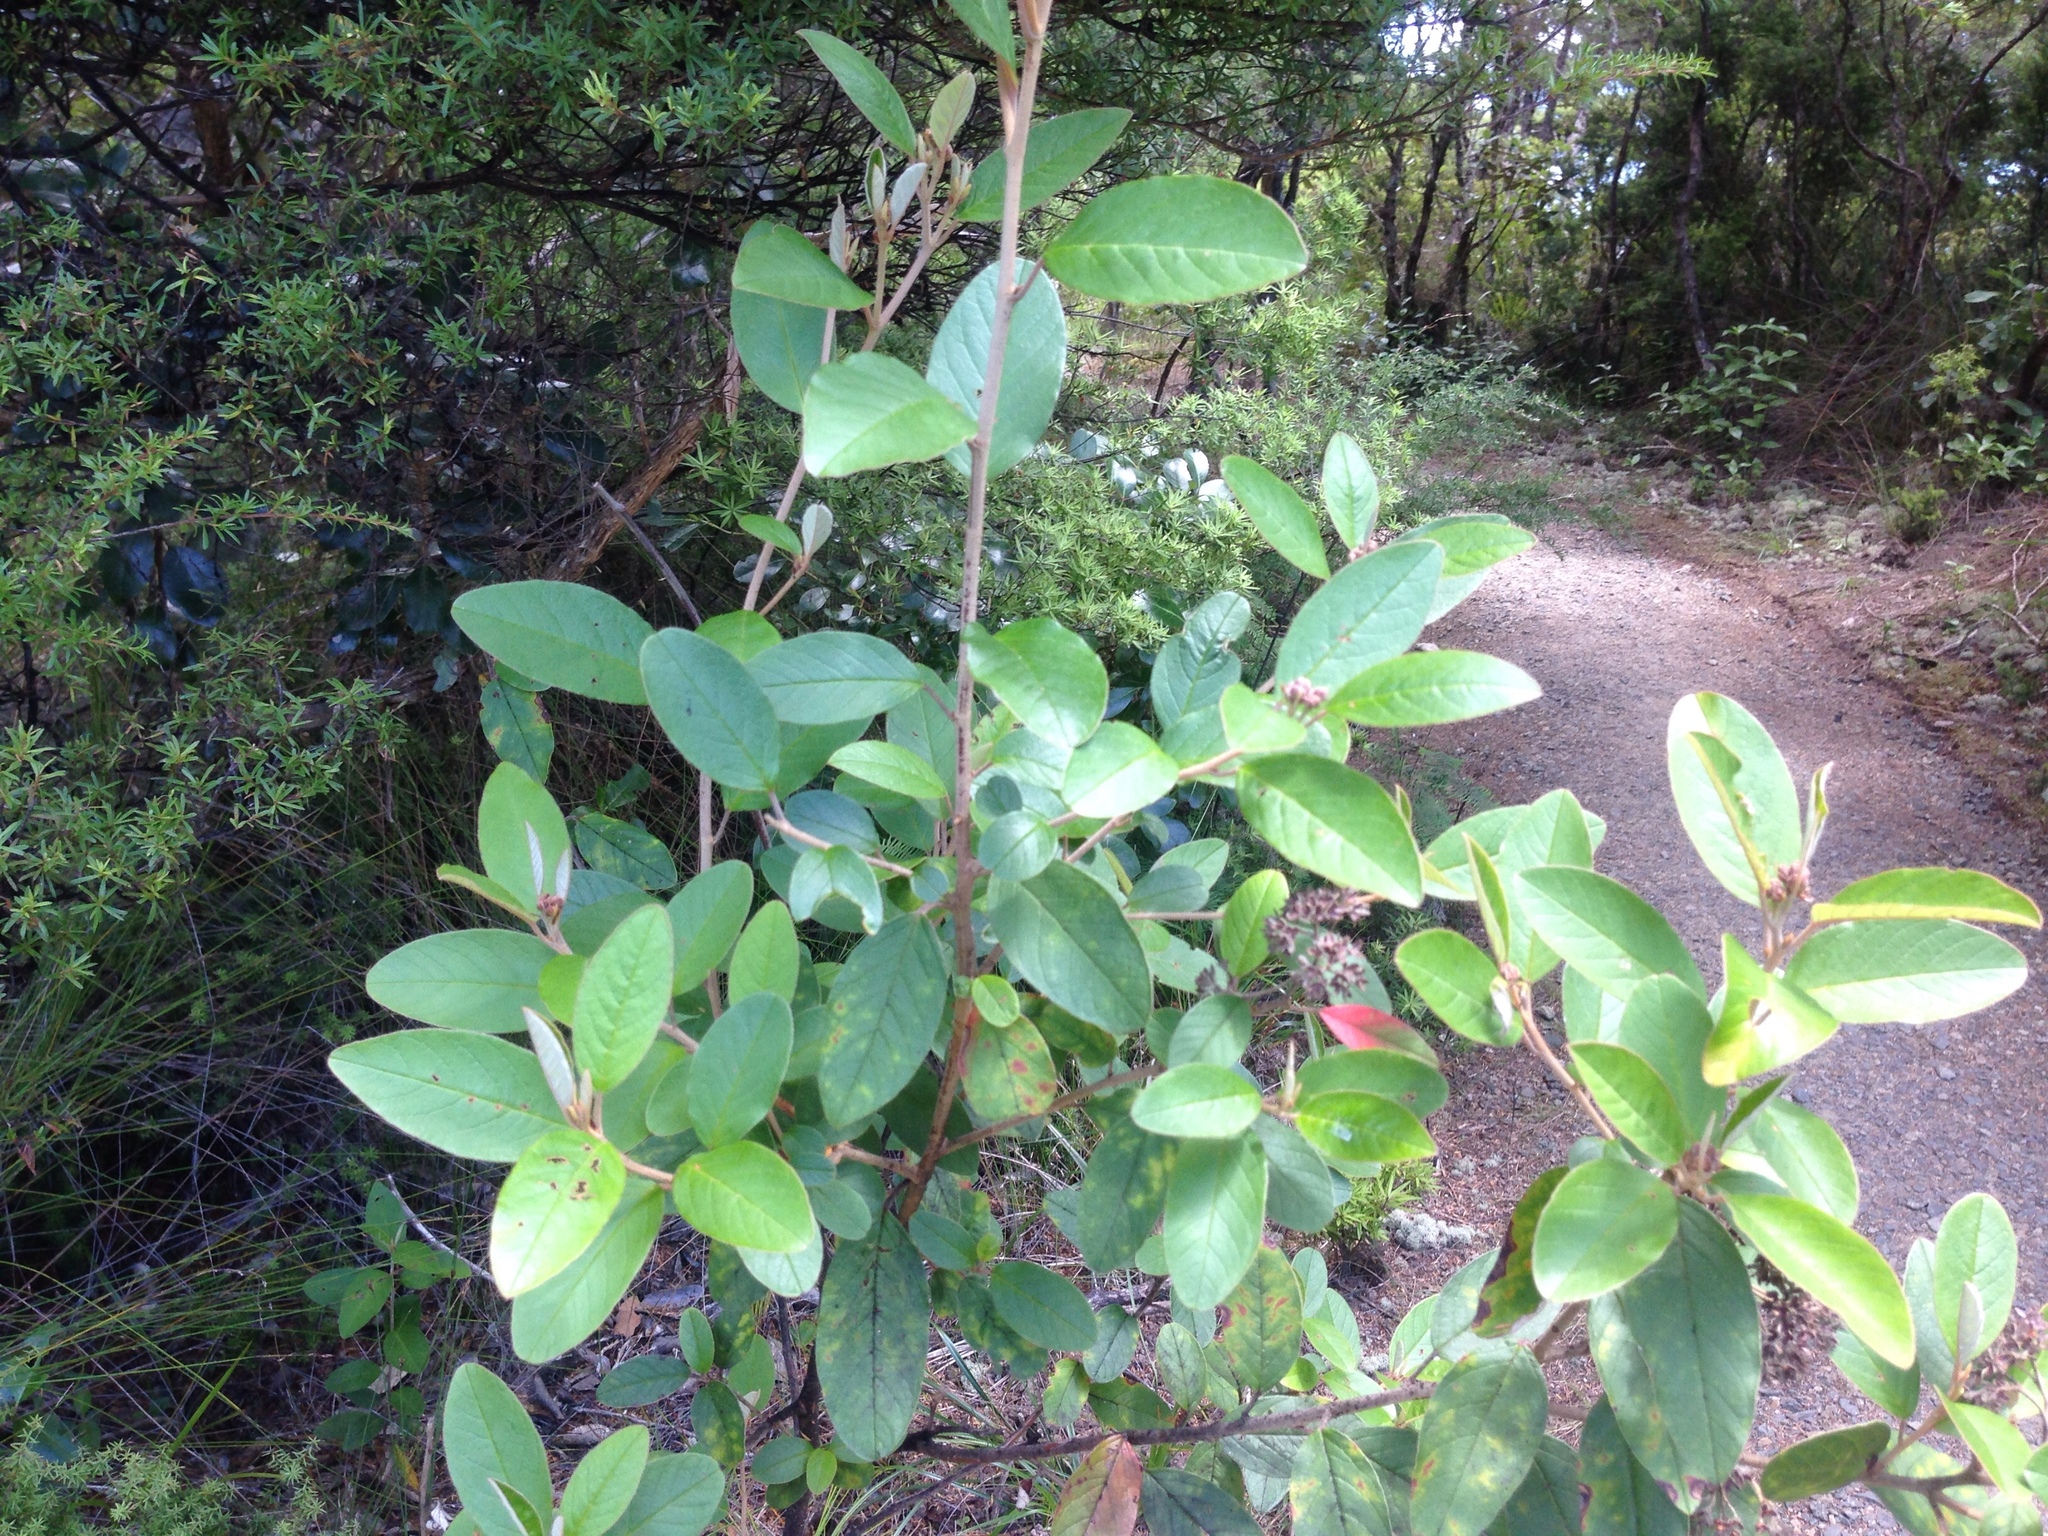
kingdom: Plantae
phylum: Tracheophyta
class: Magnoliopsida
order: Rosales
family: Rhamnaceae
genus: Pomaderris
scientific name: Pomaderris kumeraho
